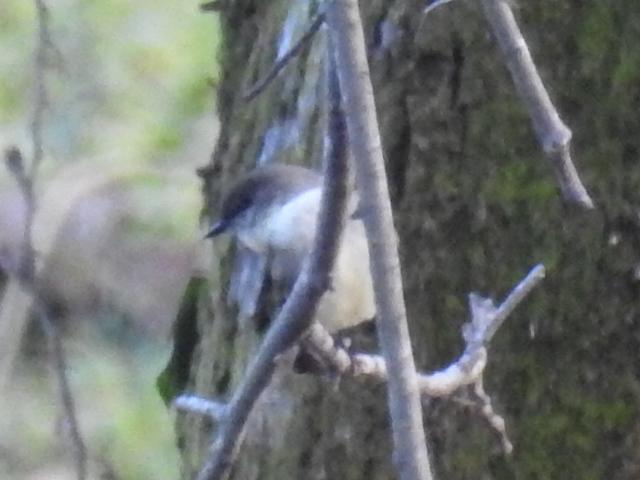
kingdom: Animalia
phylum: Chordata
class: Aves
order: Passeriformes
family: Tyrannidae
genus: Sayornis
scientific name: Sayornis phoebe
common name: Eastern phoebe
